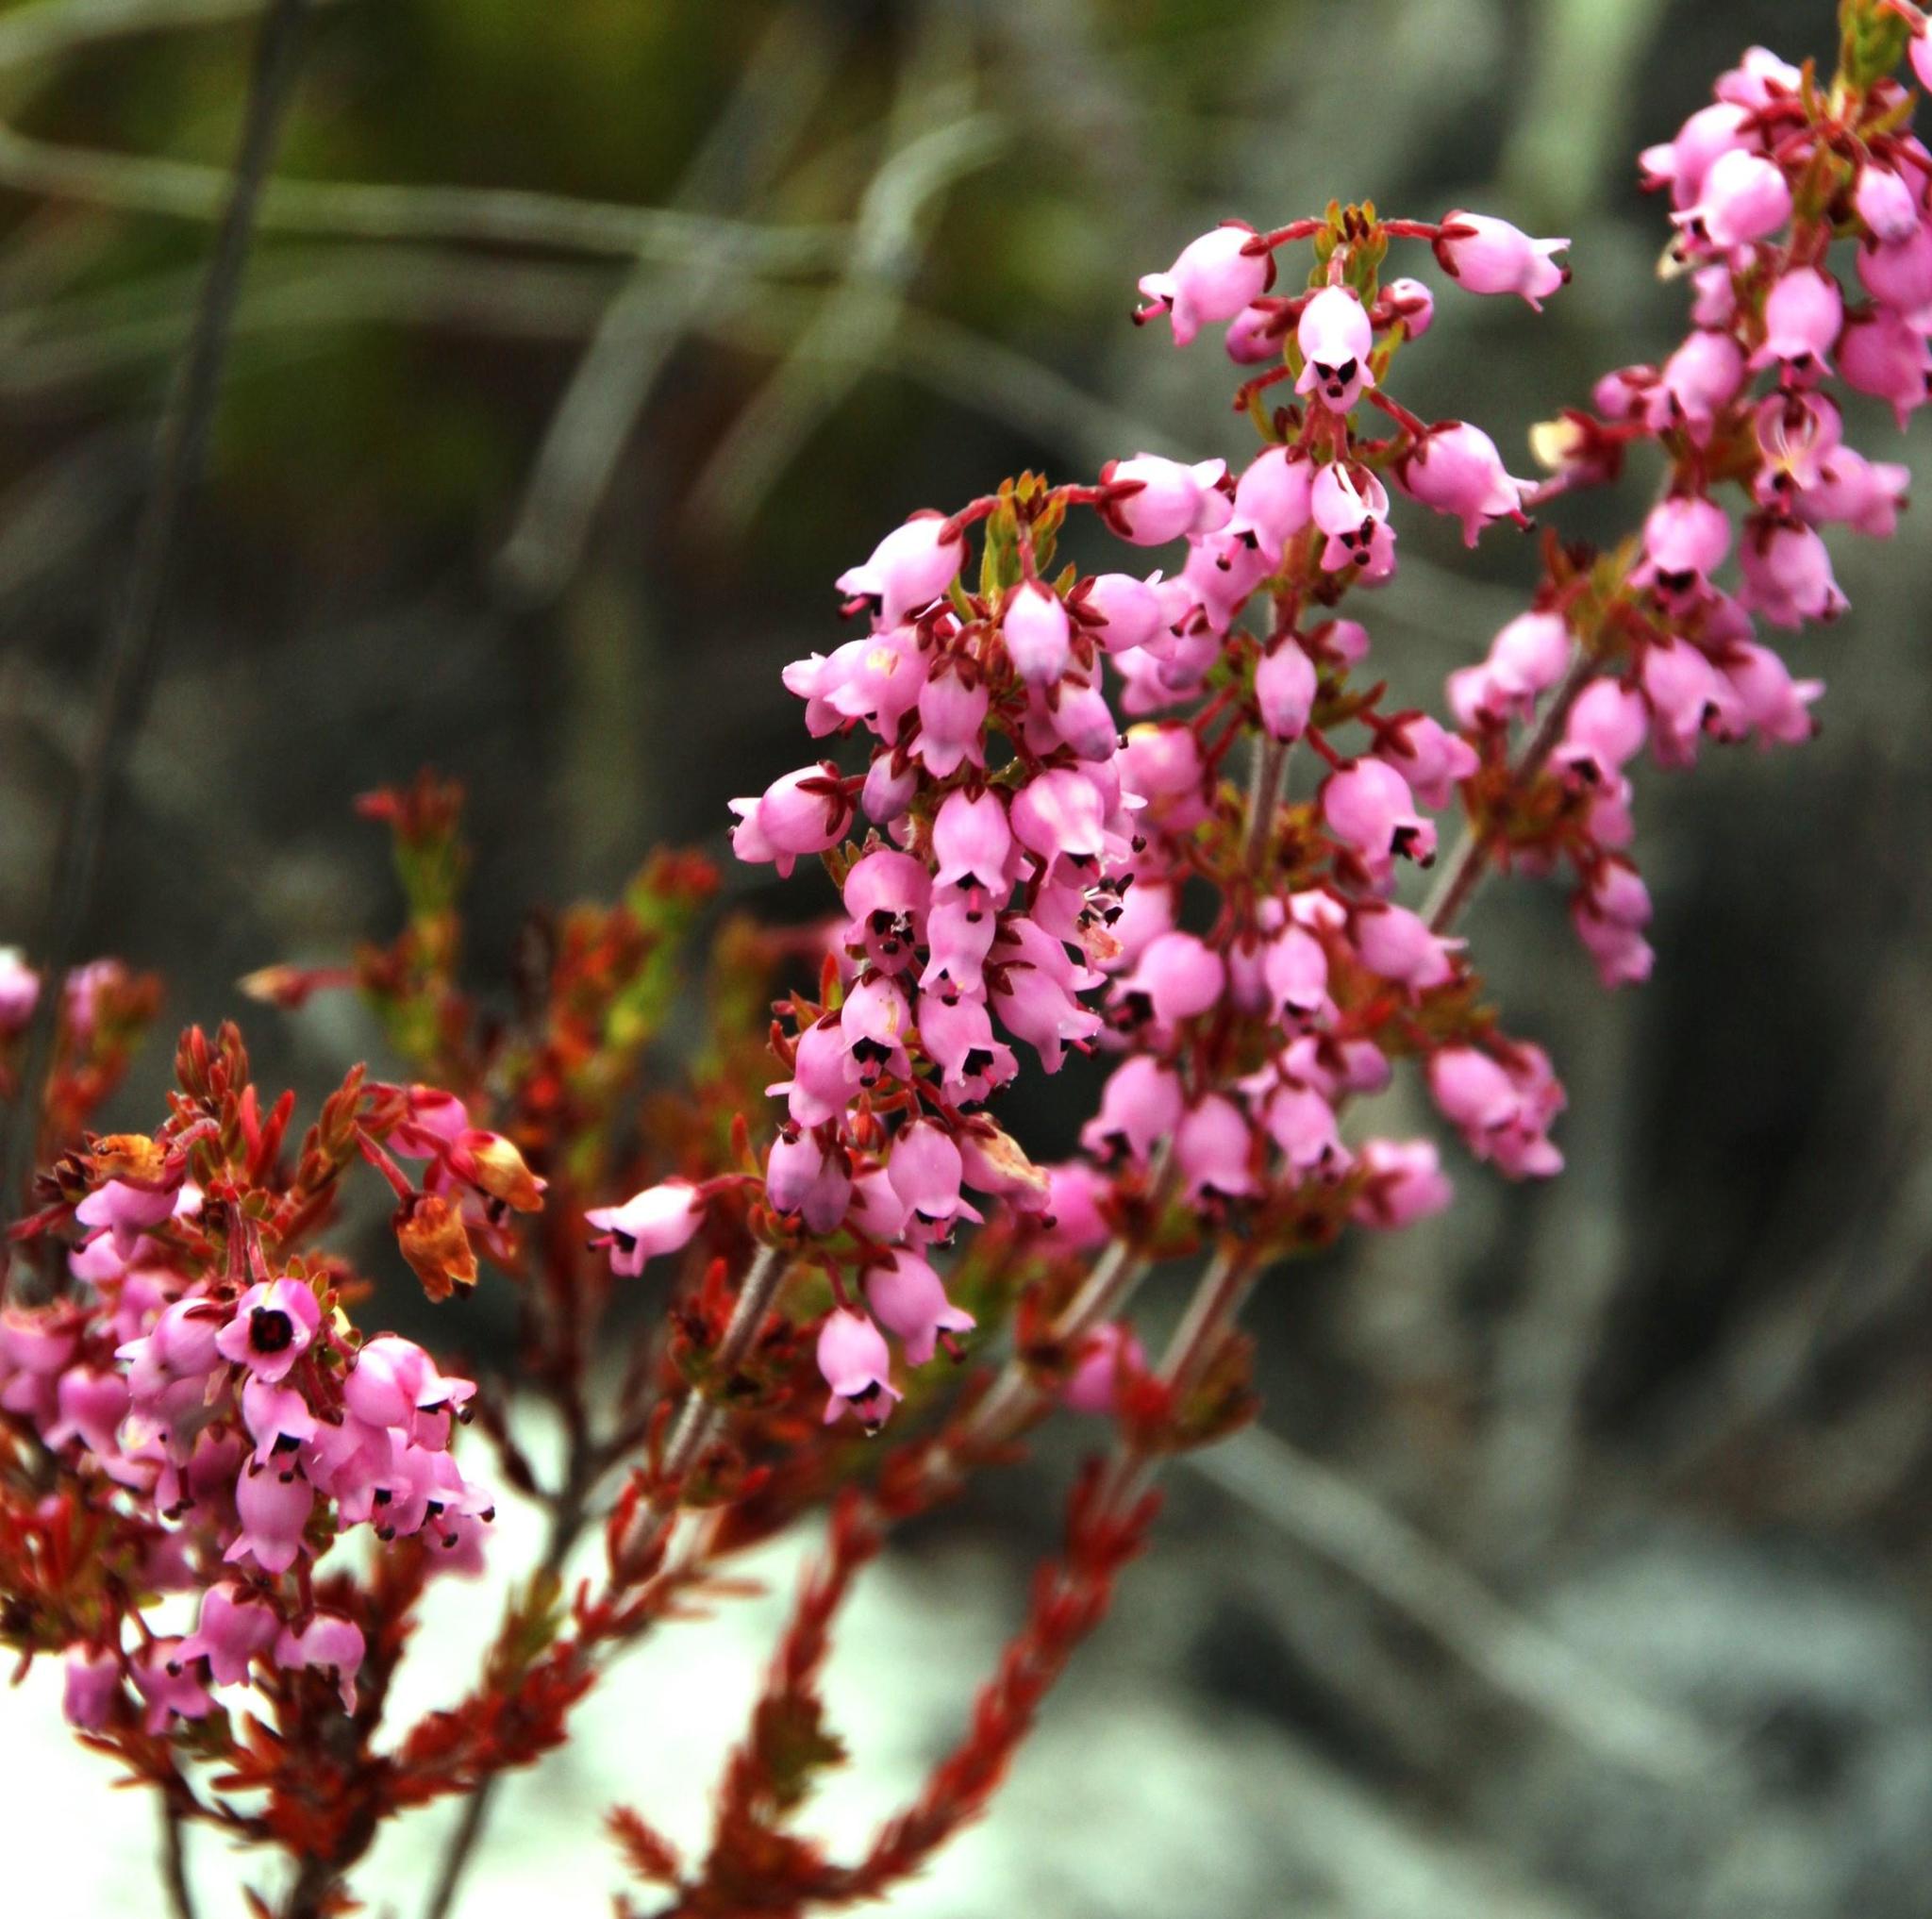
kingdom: Plantae
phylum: Tracheophyta
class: Magnoliopsida
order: Ericales
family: Ericaceae
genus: Erica
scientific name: Erica lateralis
